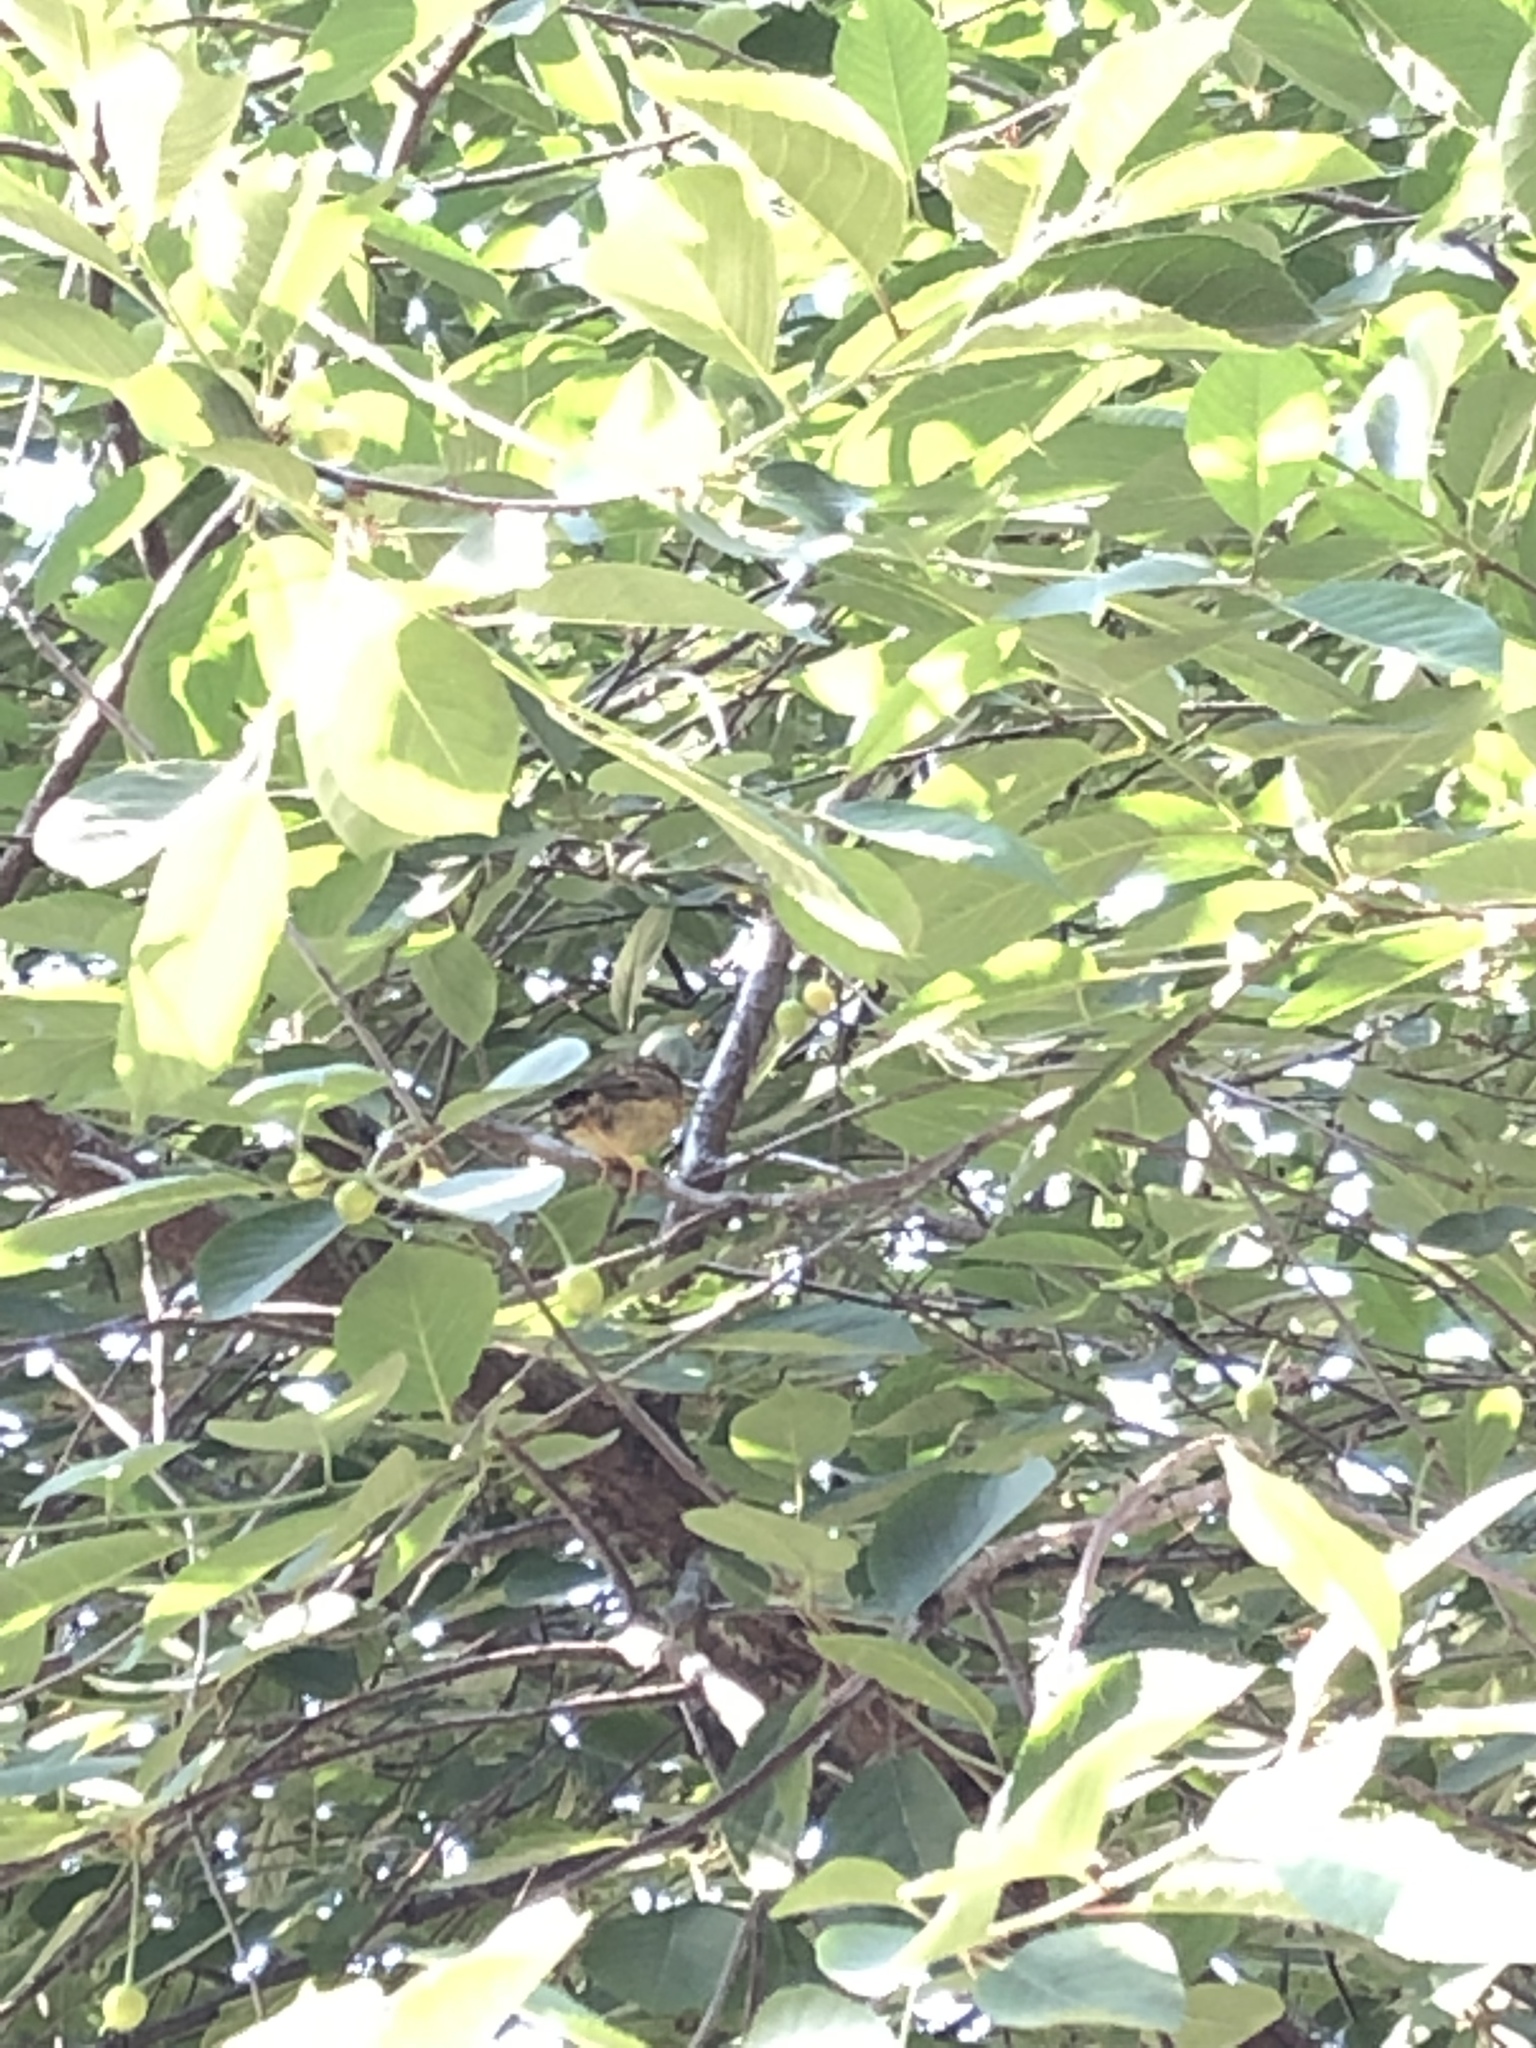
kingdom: Animalia
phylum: Chordata
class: Aves
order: Passeriformes
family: Emberizidae
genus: Emberiza
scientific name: Emberiza citrinella
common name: Yellowhammer
